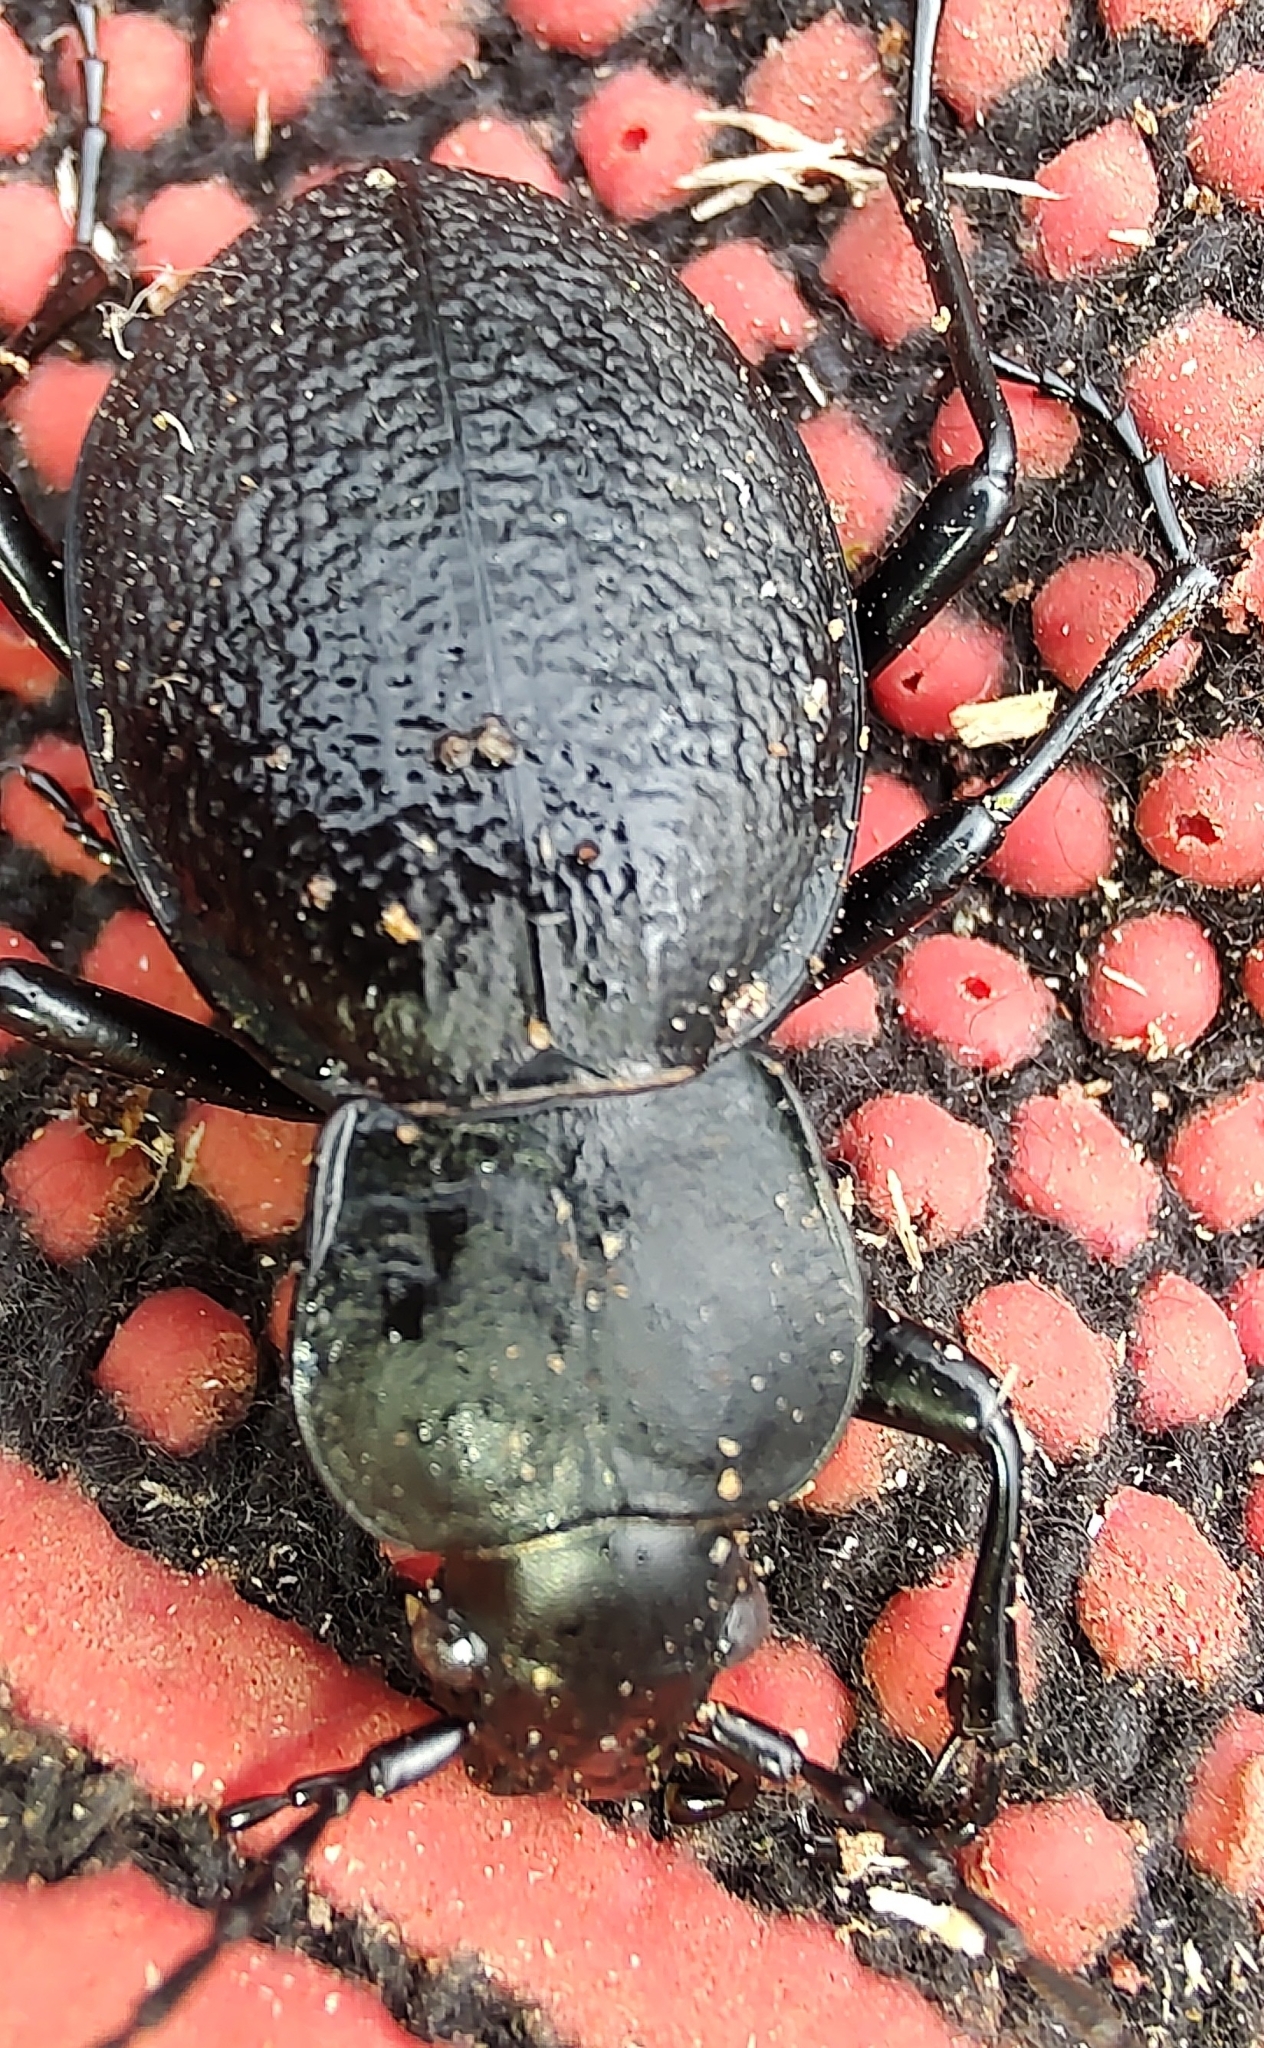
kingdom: Animalia
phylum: Arthropoda
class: Insecta
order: Coleoptera
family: Carabidae
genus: Carabus
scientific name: Carabus coriaceus
